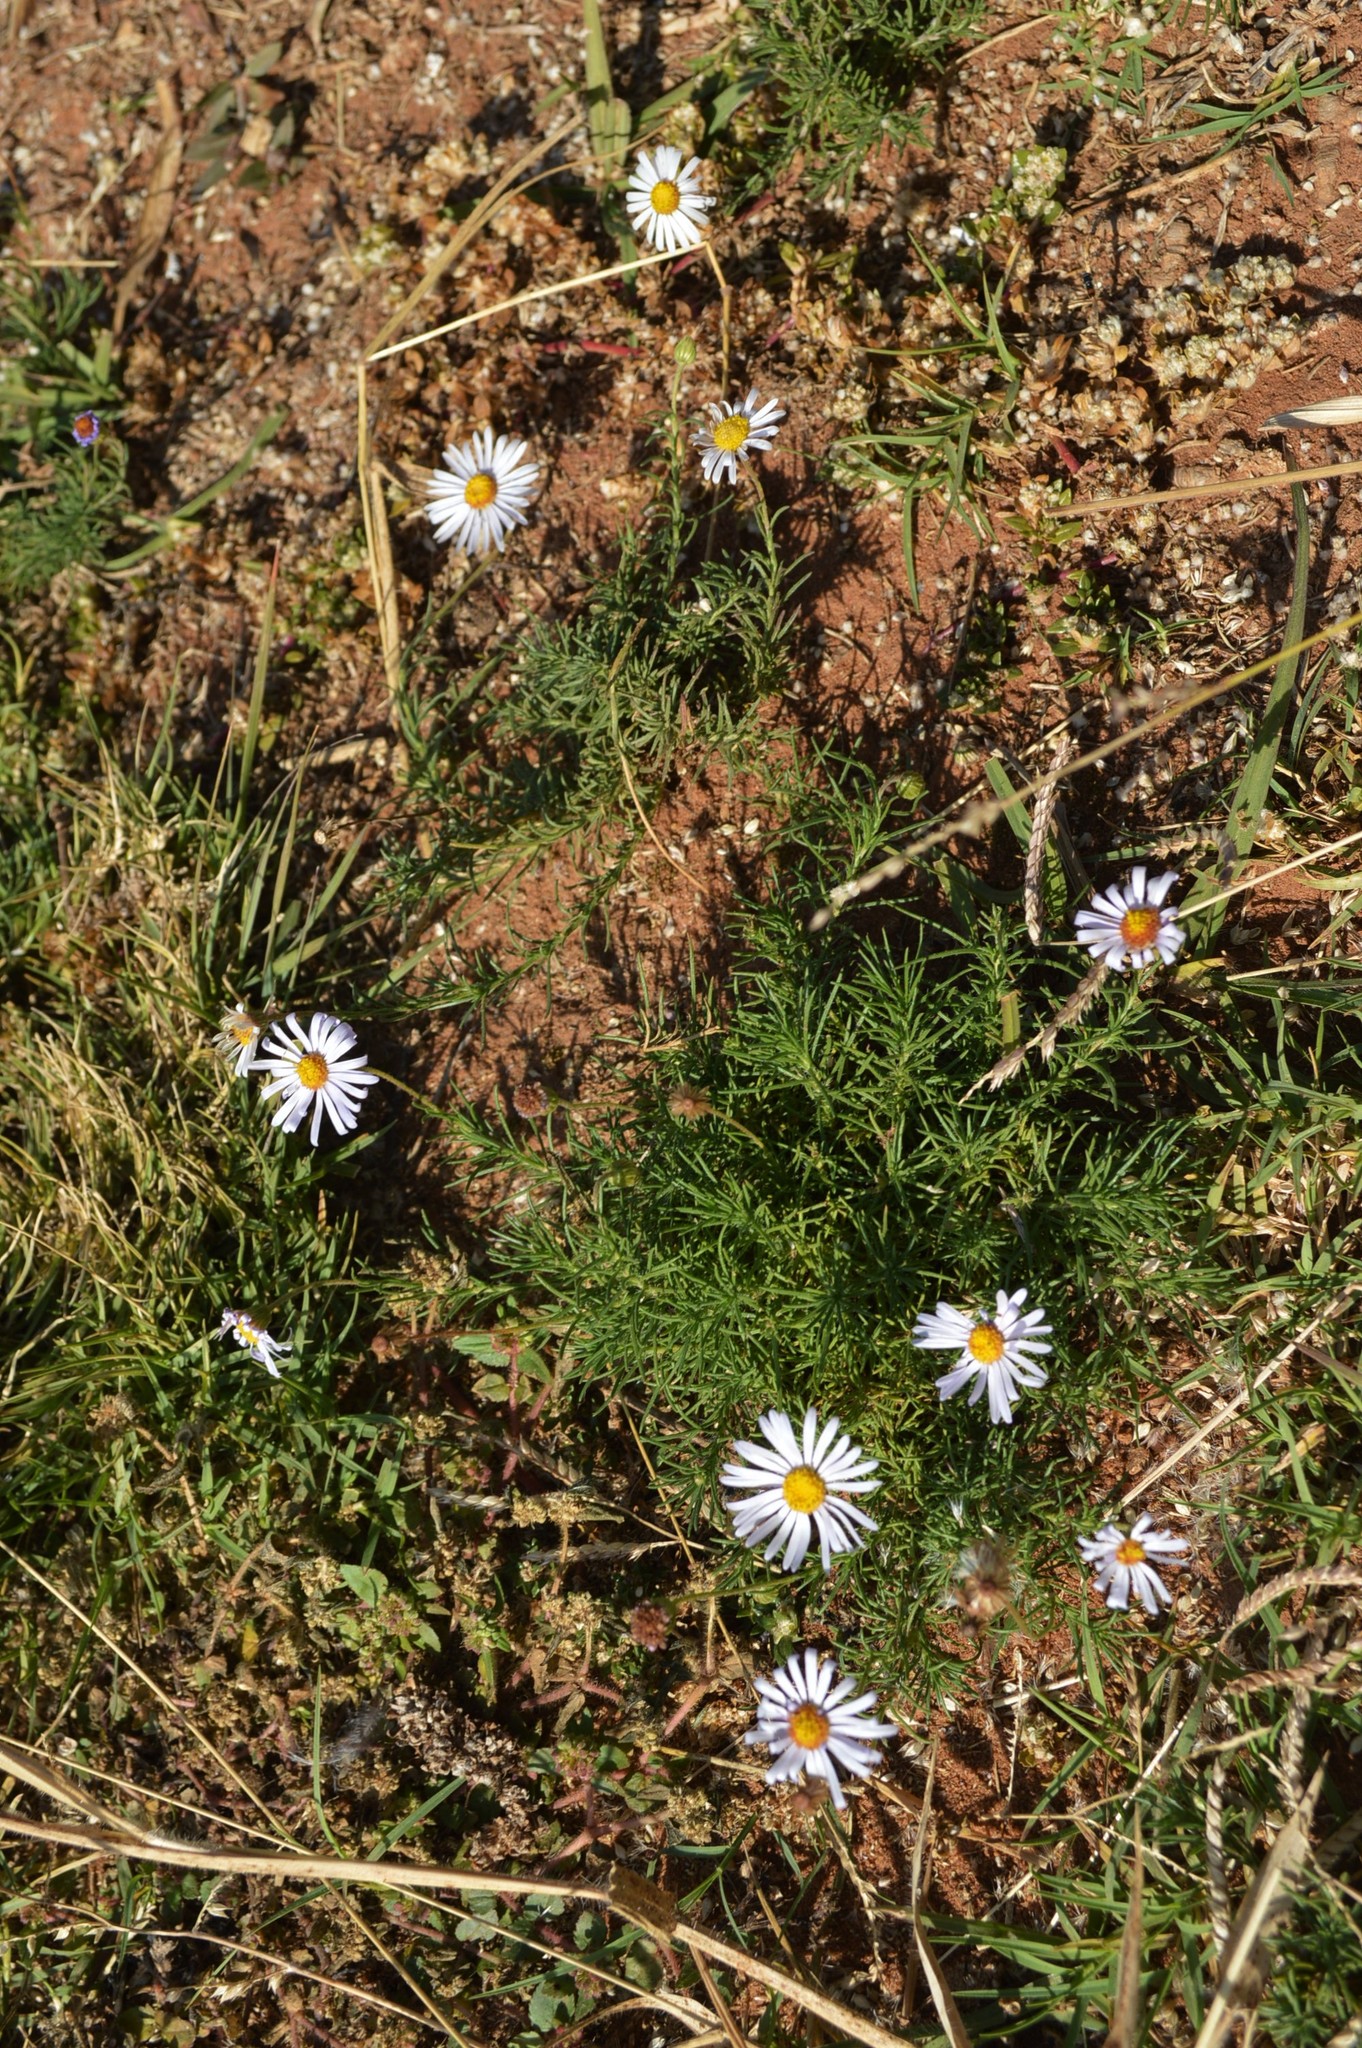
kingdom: Plantae
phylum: Tracheophyta
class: Magnoliopsida
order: Asterales
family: Asteraceae
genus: Felicia
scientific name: Felicia muricata
